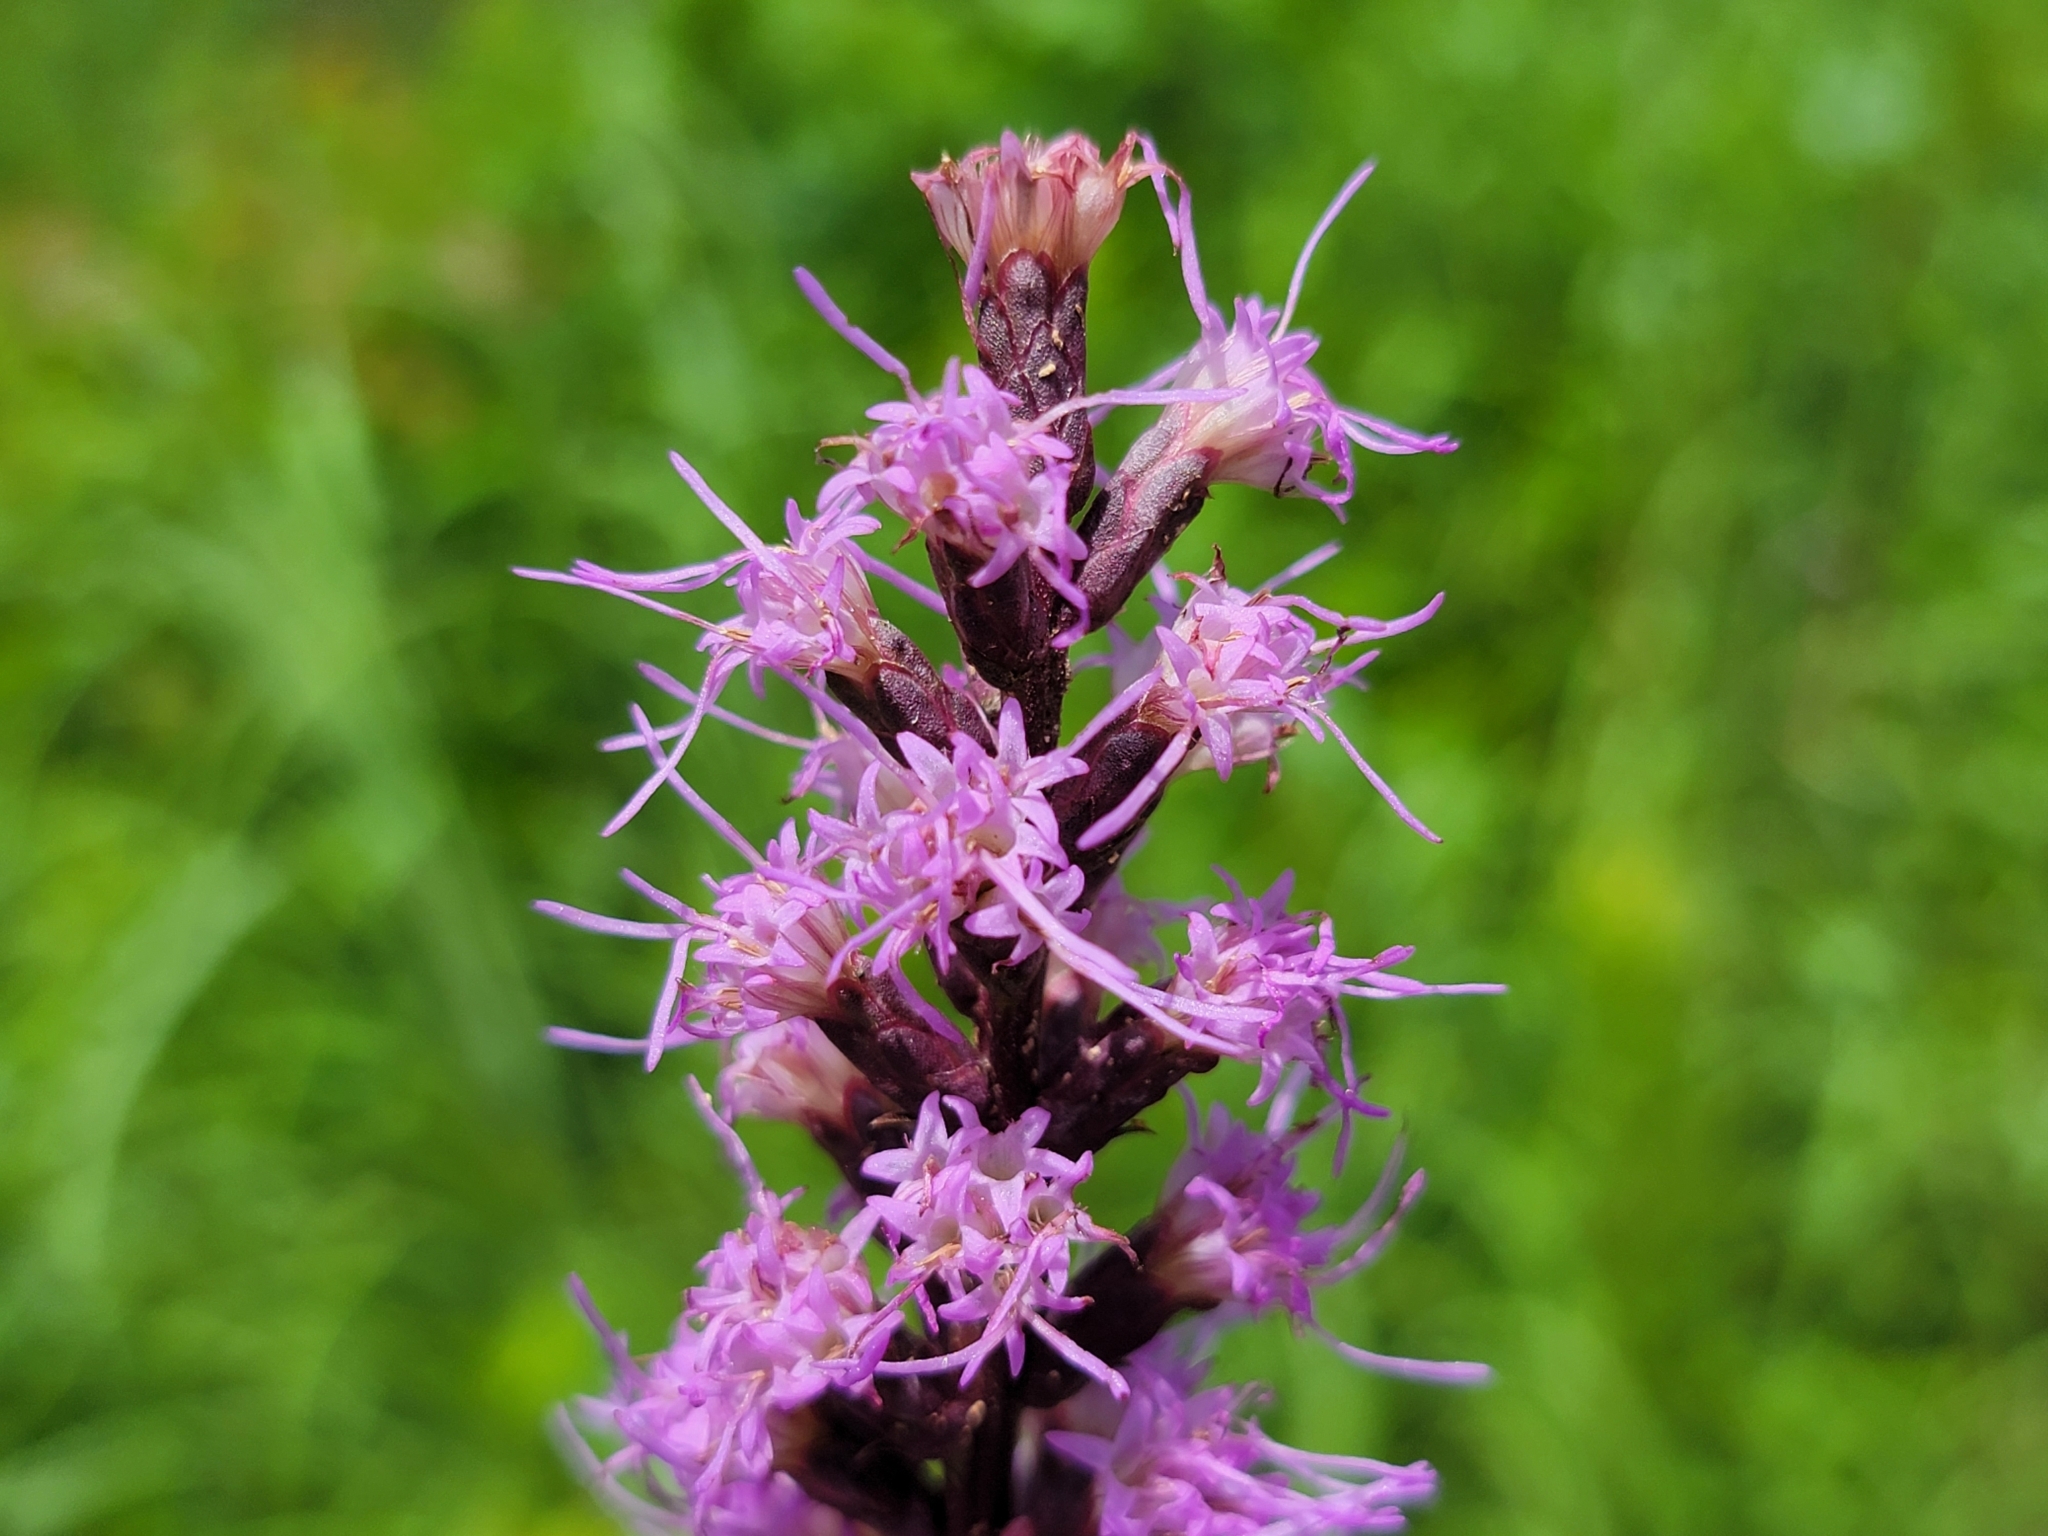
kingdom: Plantae
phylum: Tracheophyta
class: Magnoliopsida
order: Asterales
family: Asteraceae
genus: Liatris
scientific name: Liatris spicata
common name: Florist gayfeather
